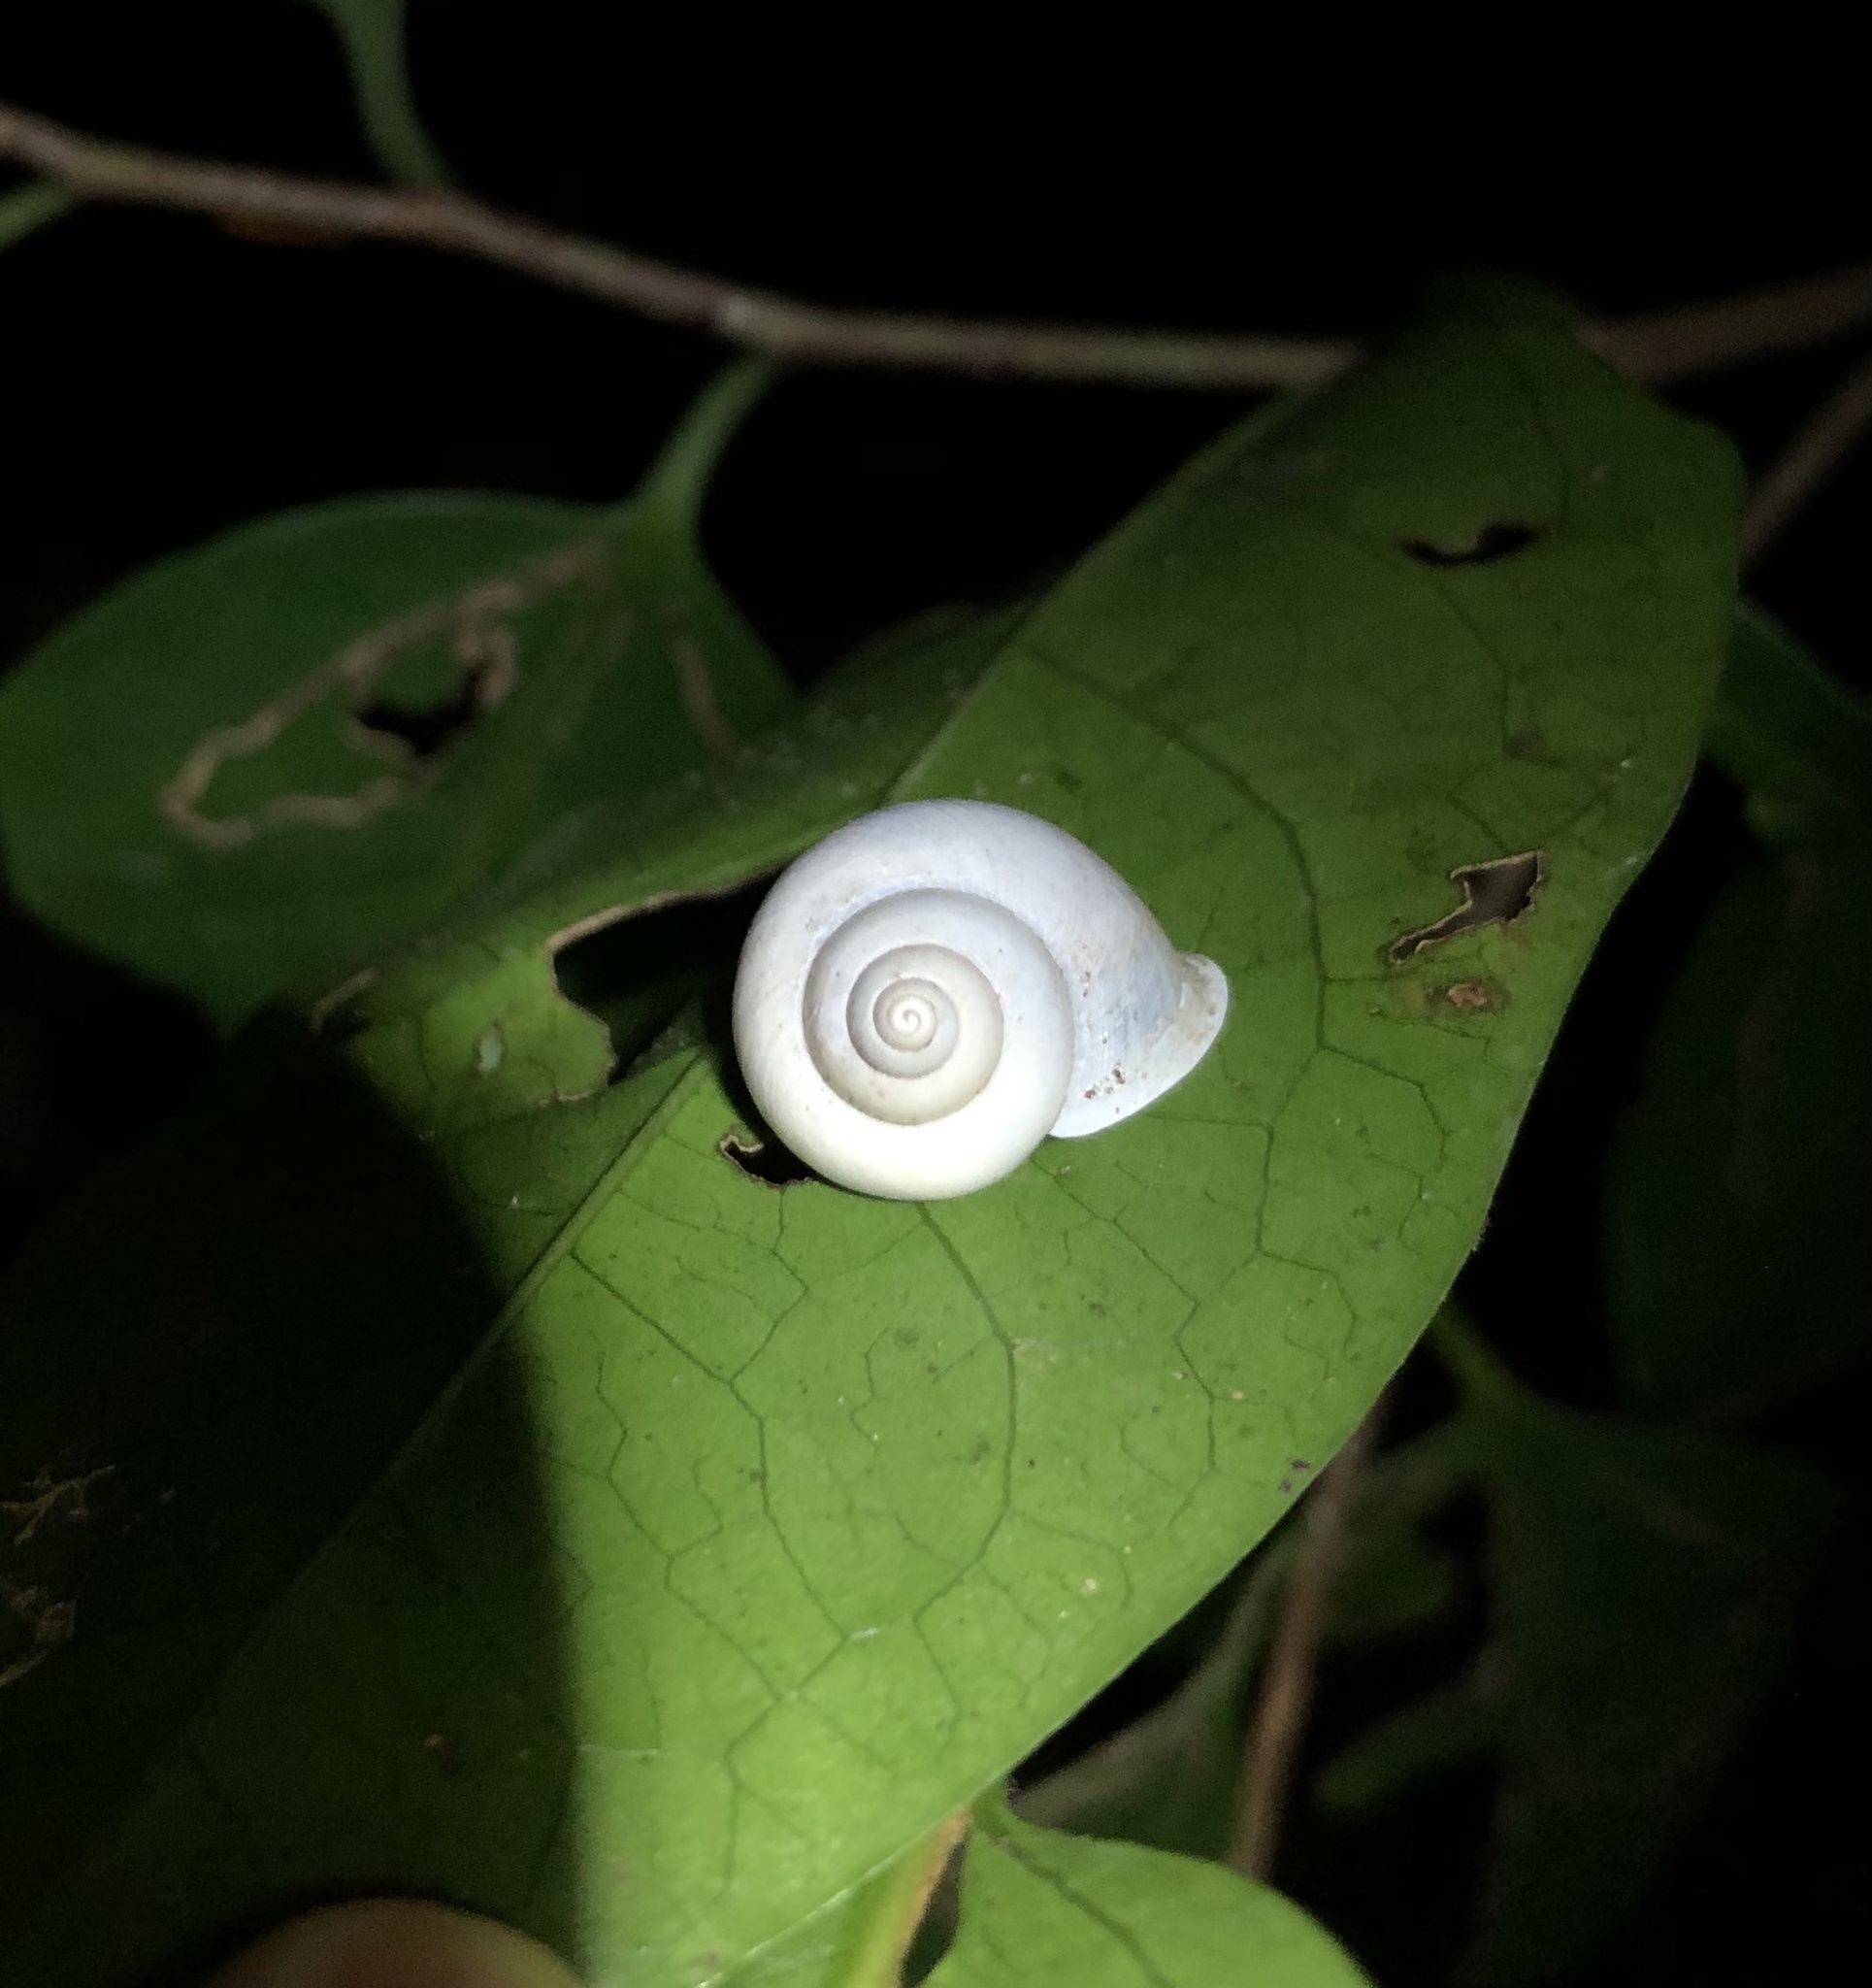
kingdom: Animalia
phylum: Mollusca
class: Gastropoda
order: Architaenioglossa
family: Cyclophoridae
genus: Leptopoma
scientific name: Leptopoma perlucidum
